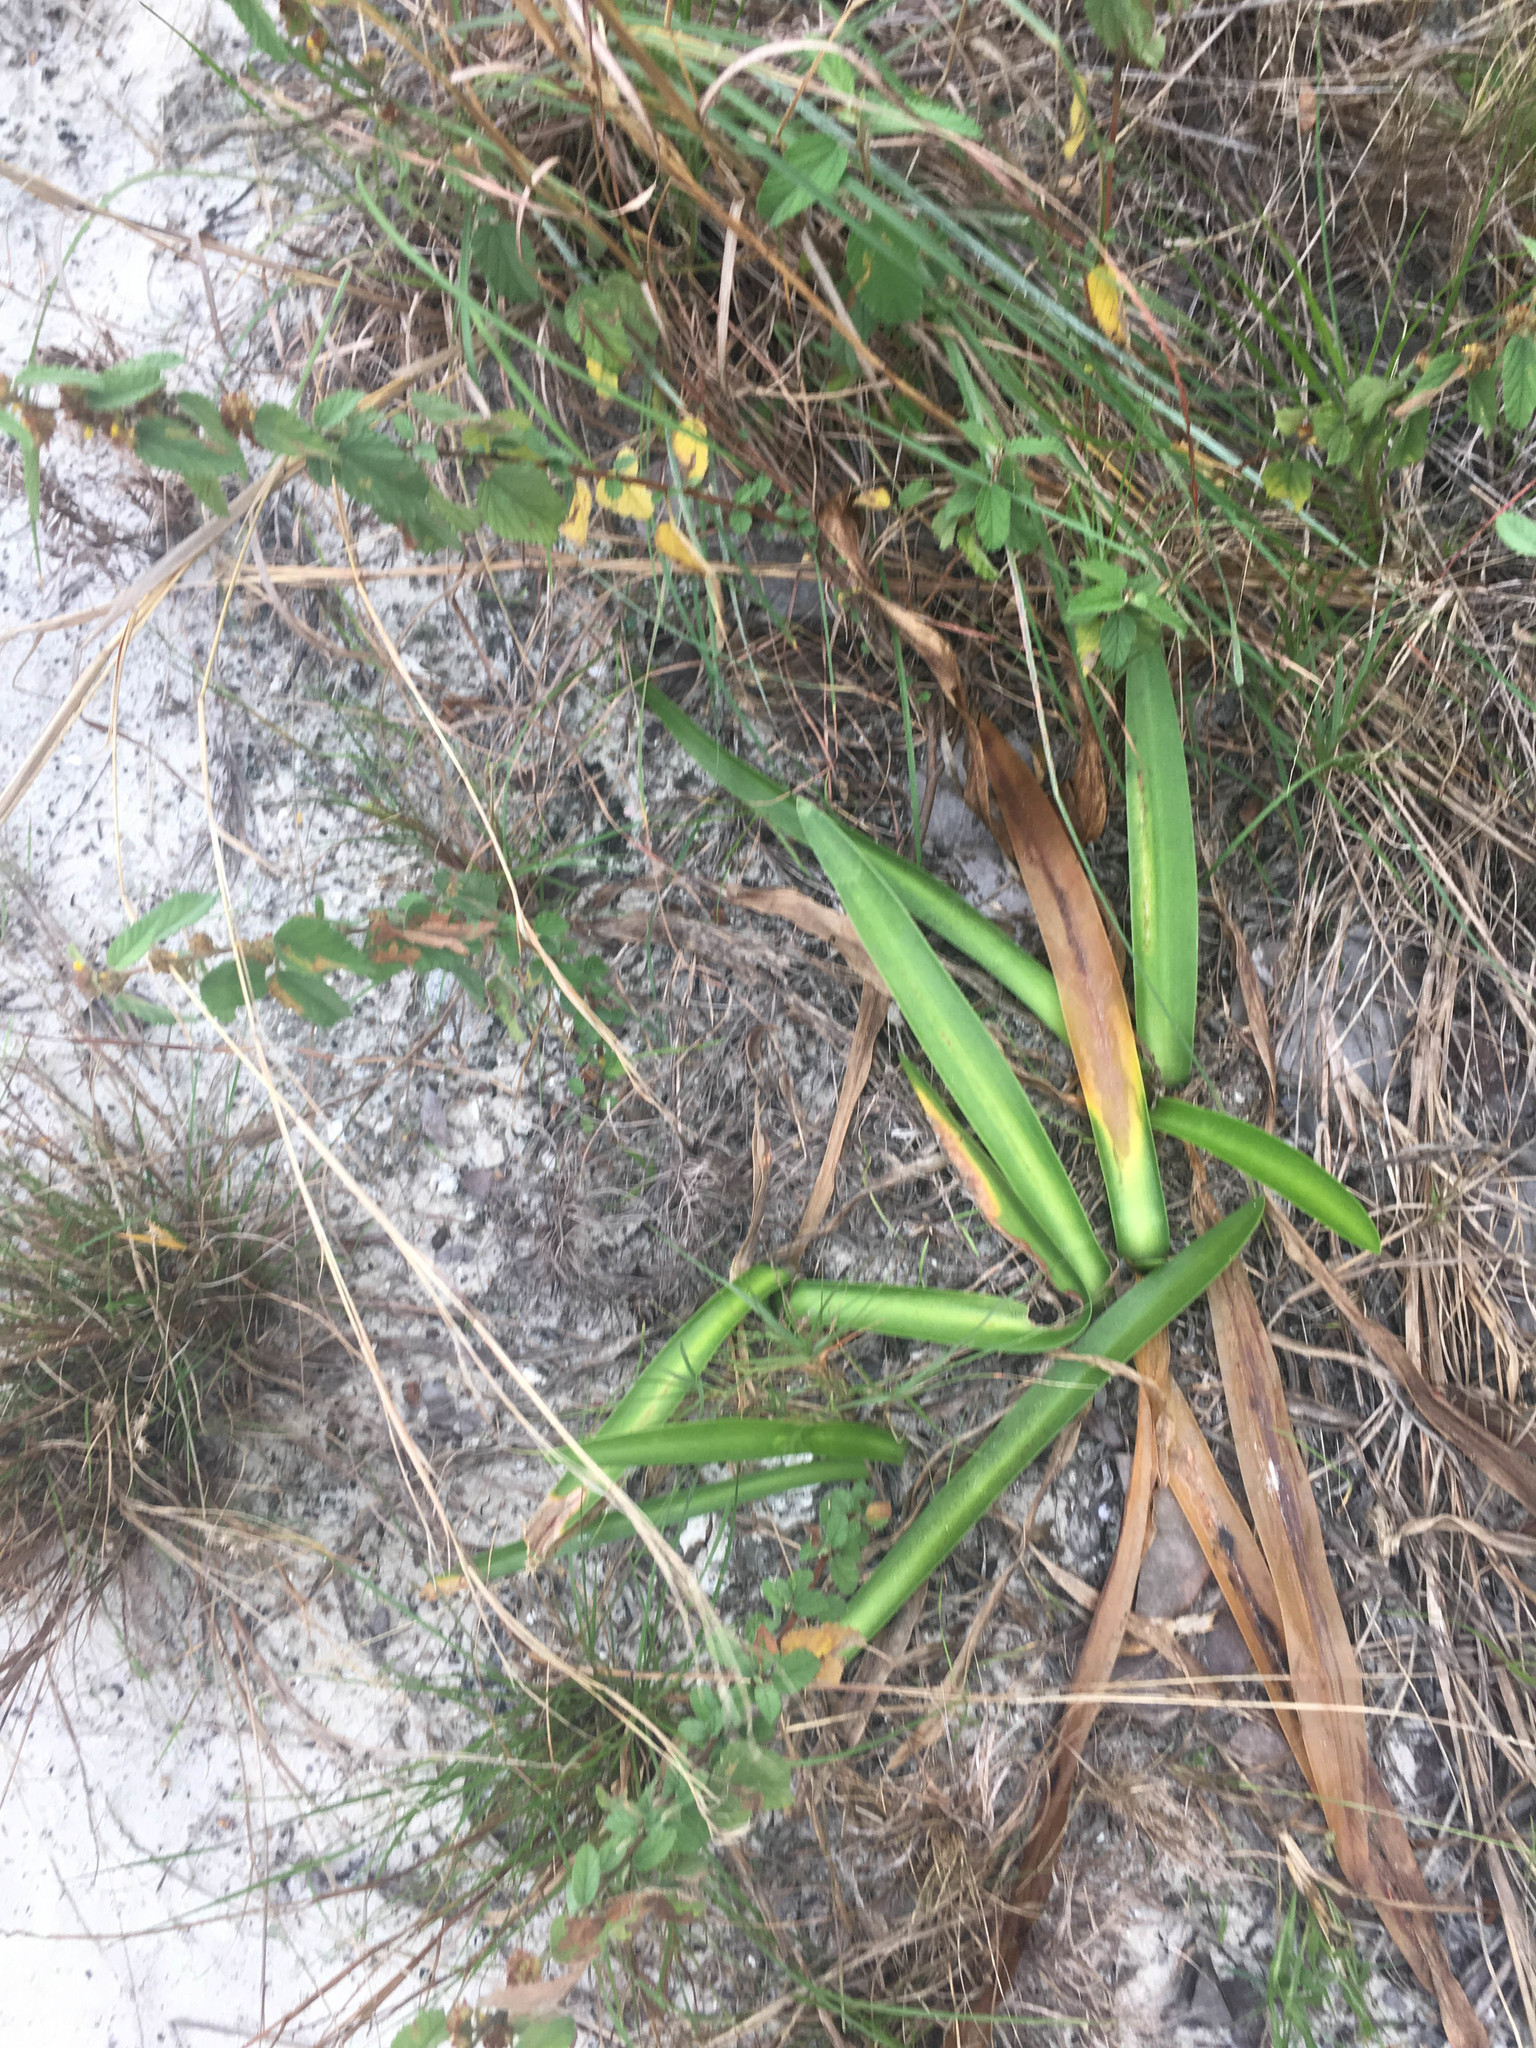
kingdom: Plantae
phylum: Tracheophyta
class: Magnoliopsida
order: Malvales
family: Malvaceae
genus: Waltheria
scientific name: Waltheria indica
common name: Leather-coat
